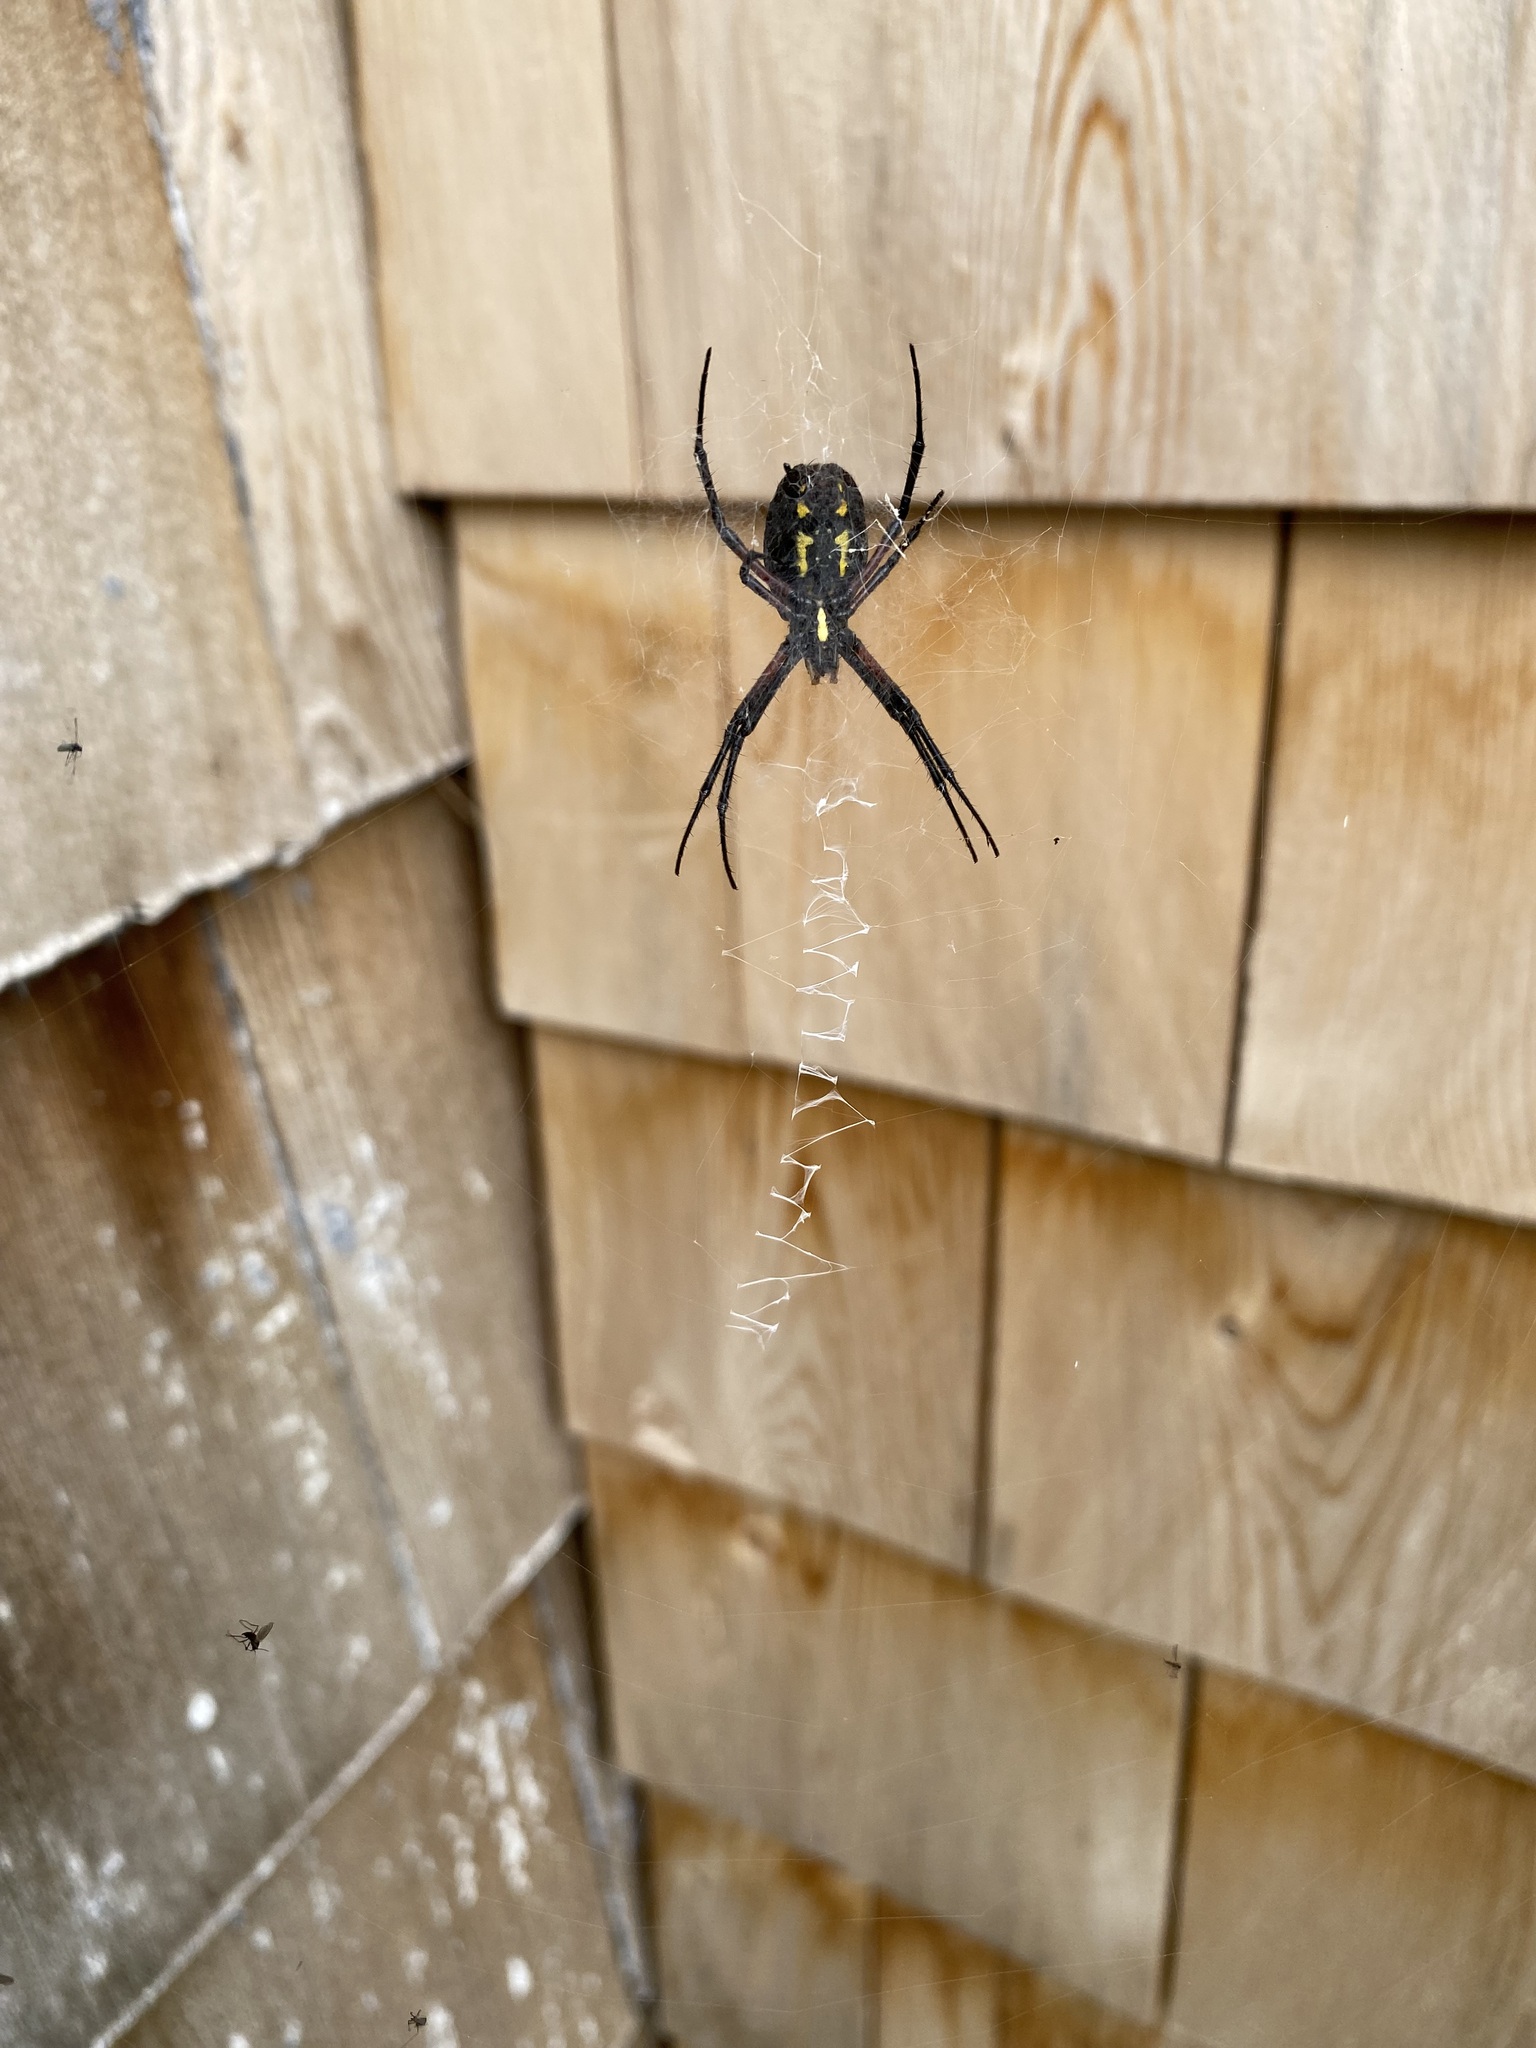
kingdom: Animalia
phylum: Arthropoda
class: Arachnida
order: Araneae
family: Araneidae
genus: Argiope
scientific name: Argiope aurantia
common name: Orb weavers
